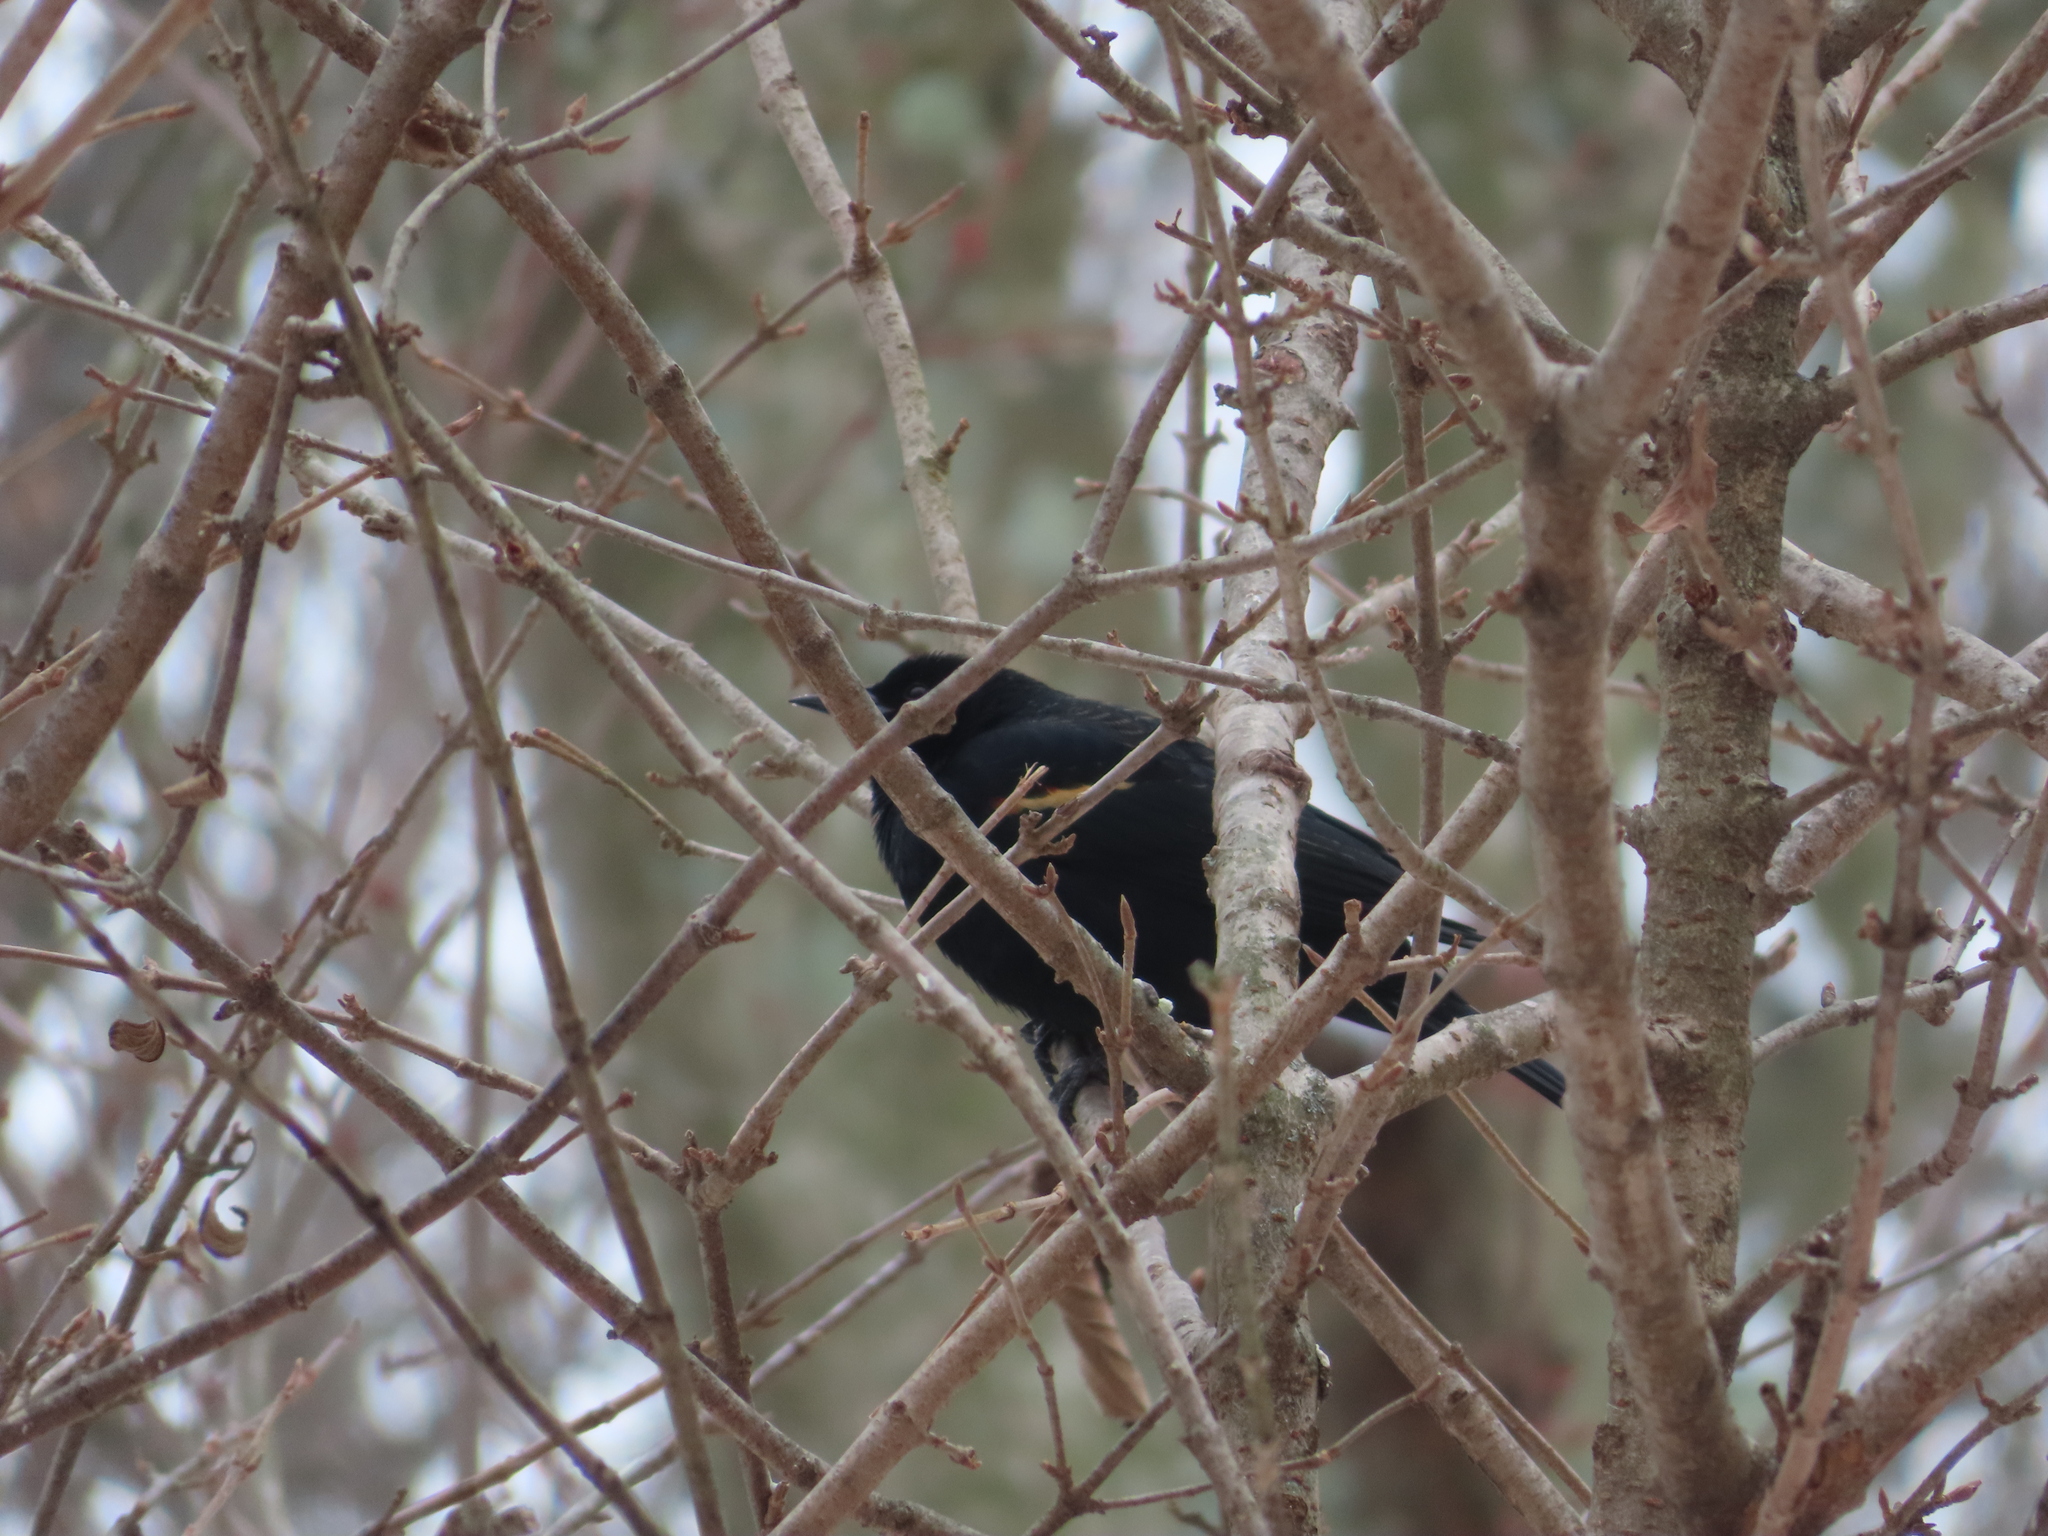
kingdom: Animalia
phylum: Chordata
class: Aves
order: Passeriformes
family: Icteridae
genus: Agelaius
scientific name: Agelaius phoeniceus
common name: Red-winged blackbird
